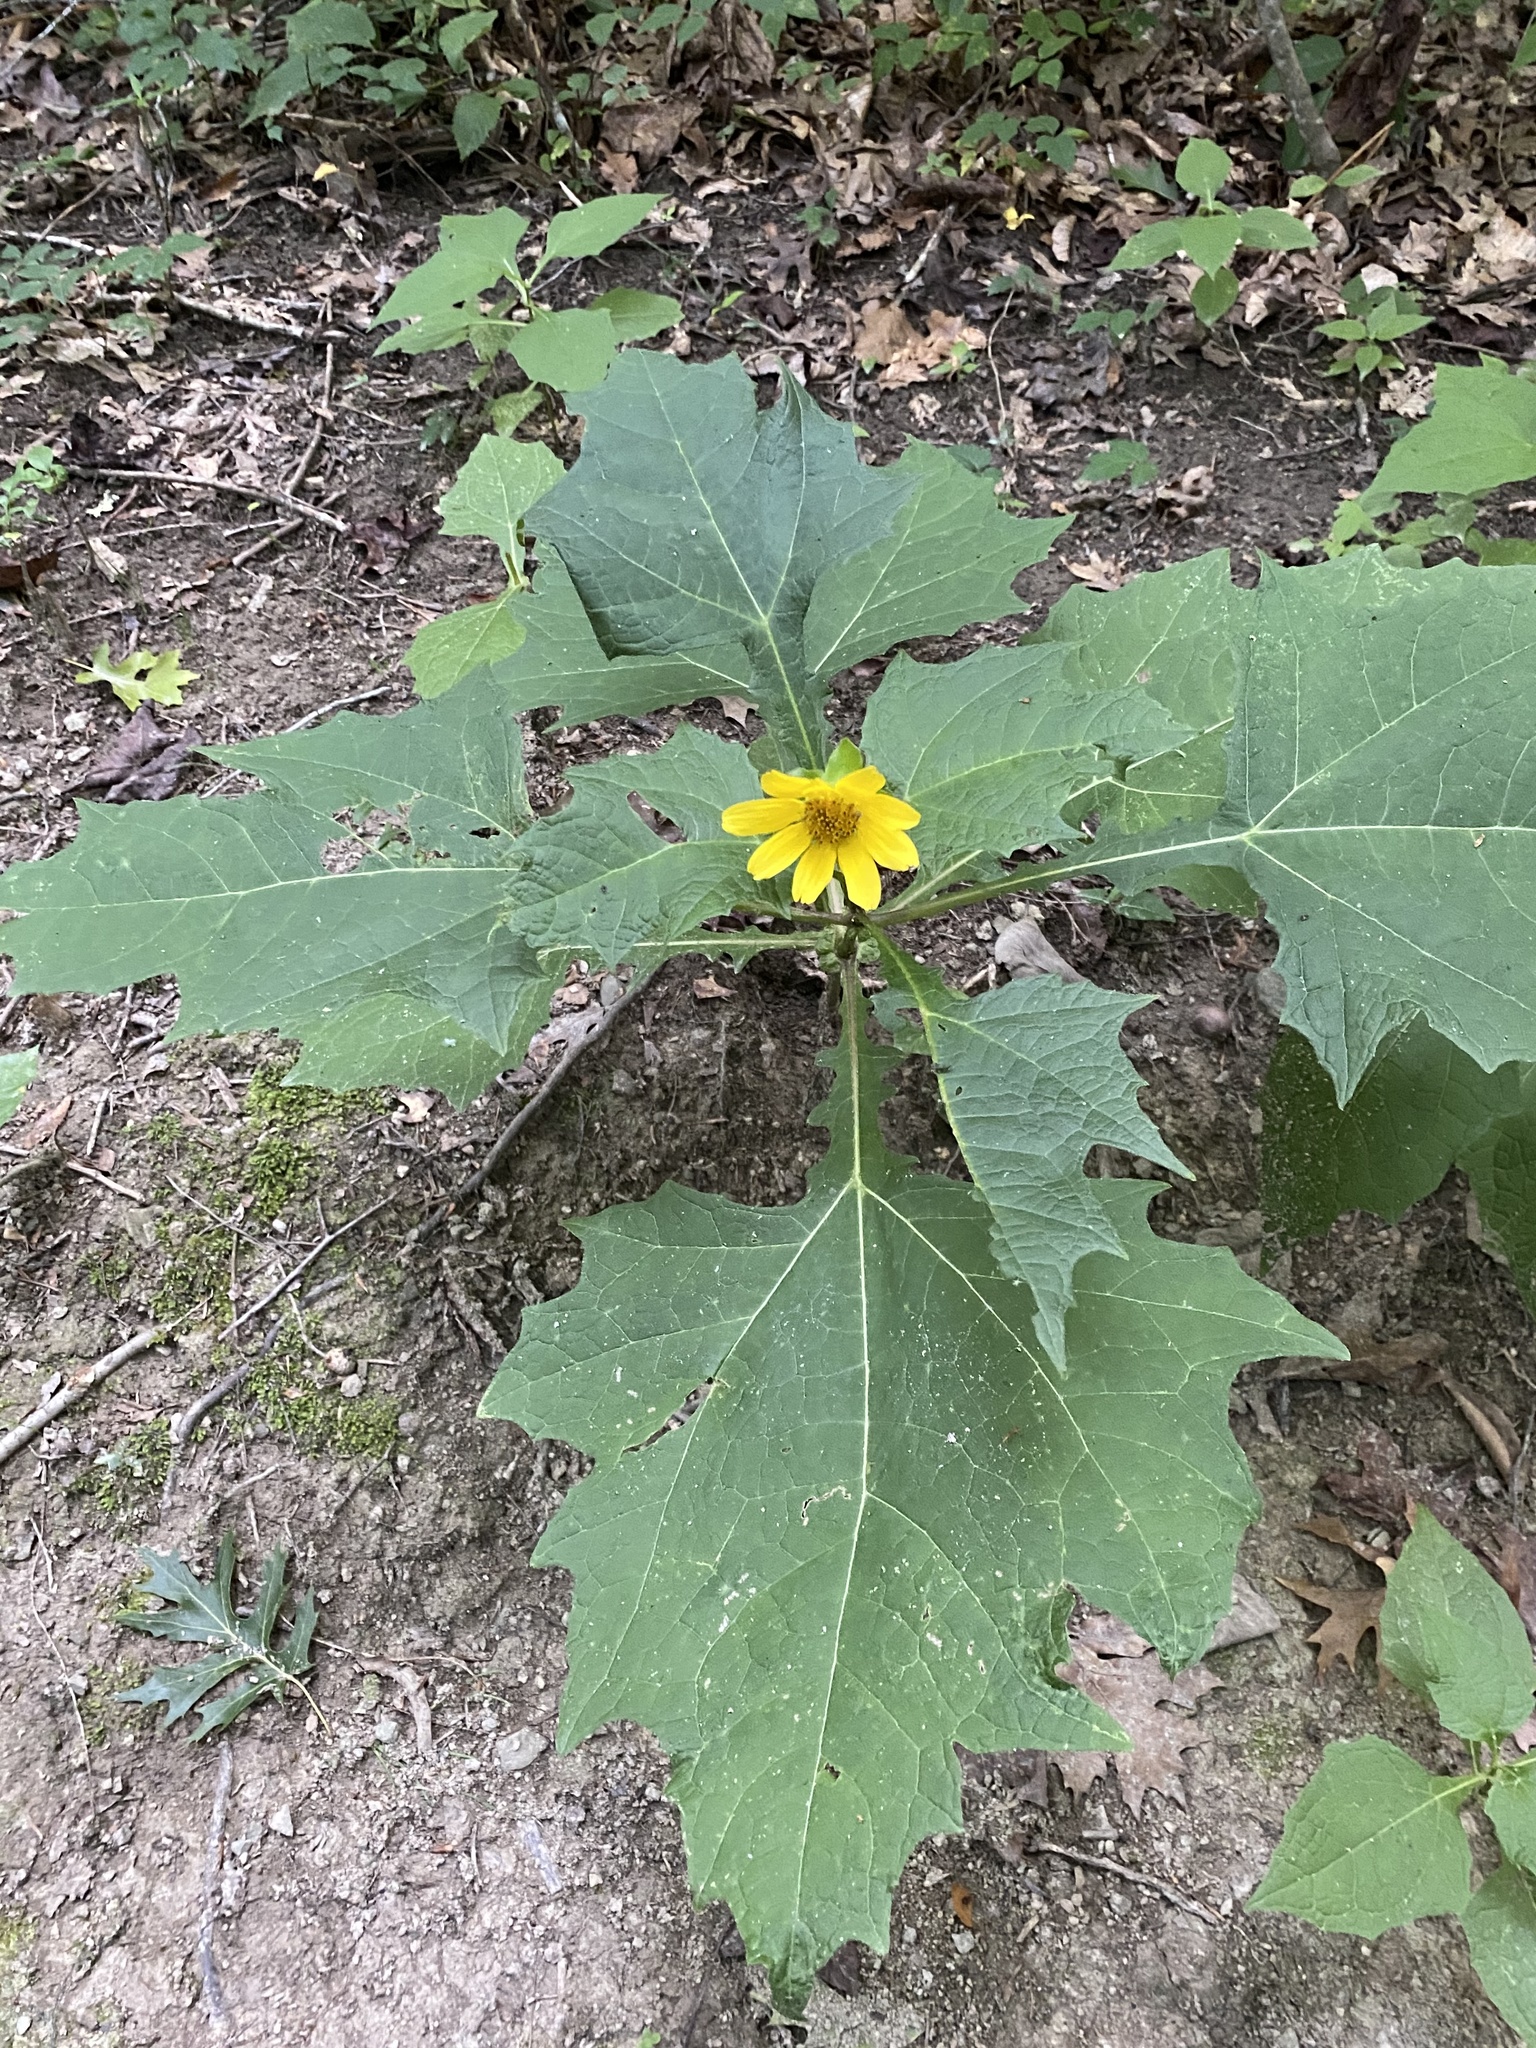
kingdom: Plantae
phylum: Tracheophyta
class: Magnoliopsida
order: Asterales
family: Asteraceae
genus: Smallanthus
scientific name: Smallanthus uvedalia
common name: Bear's-foot
